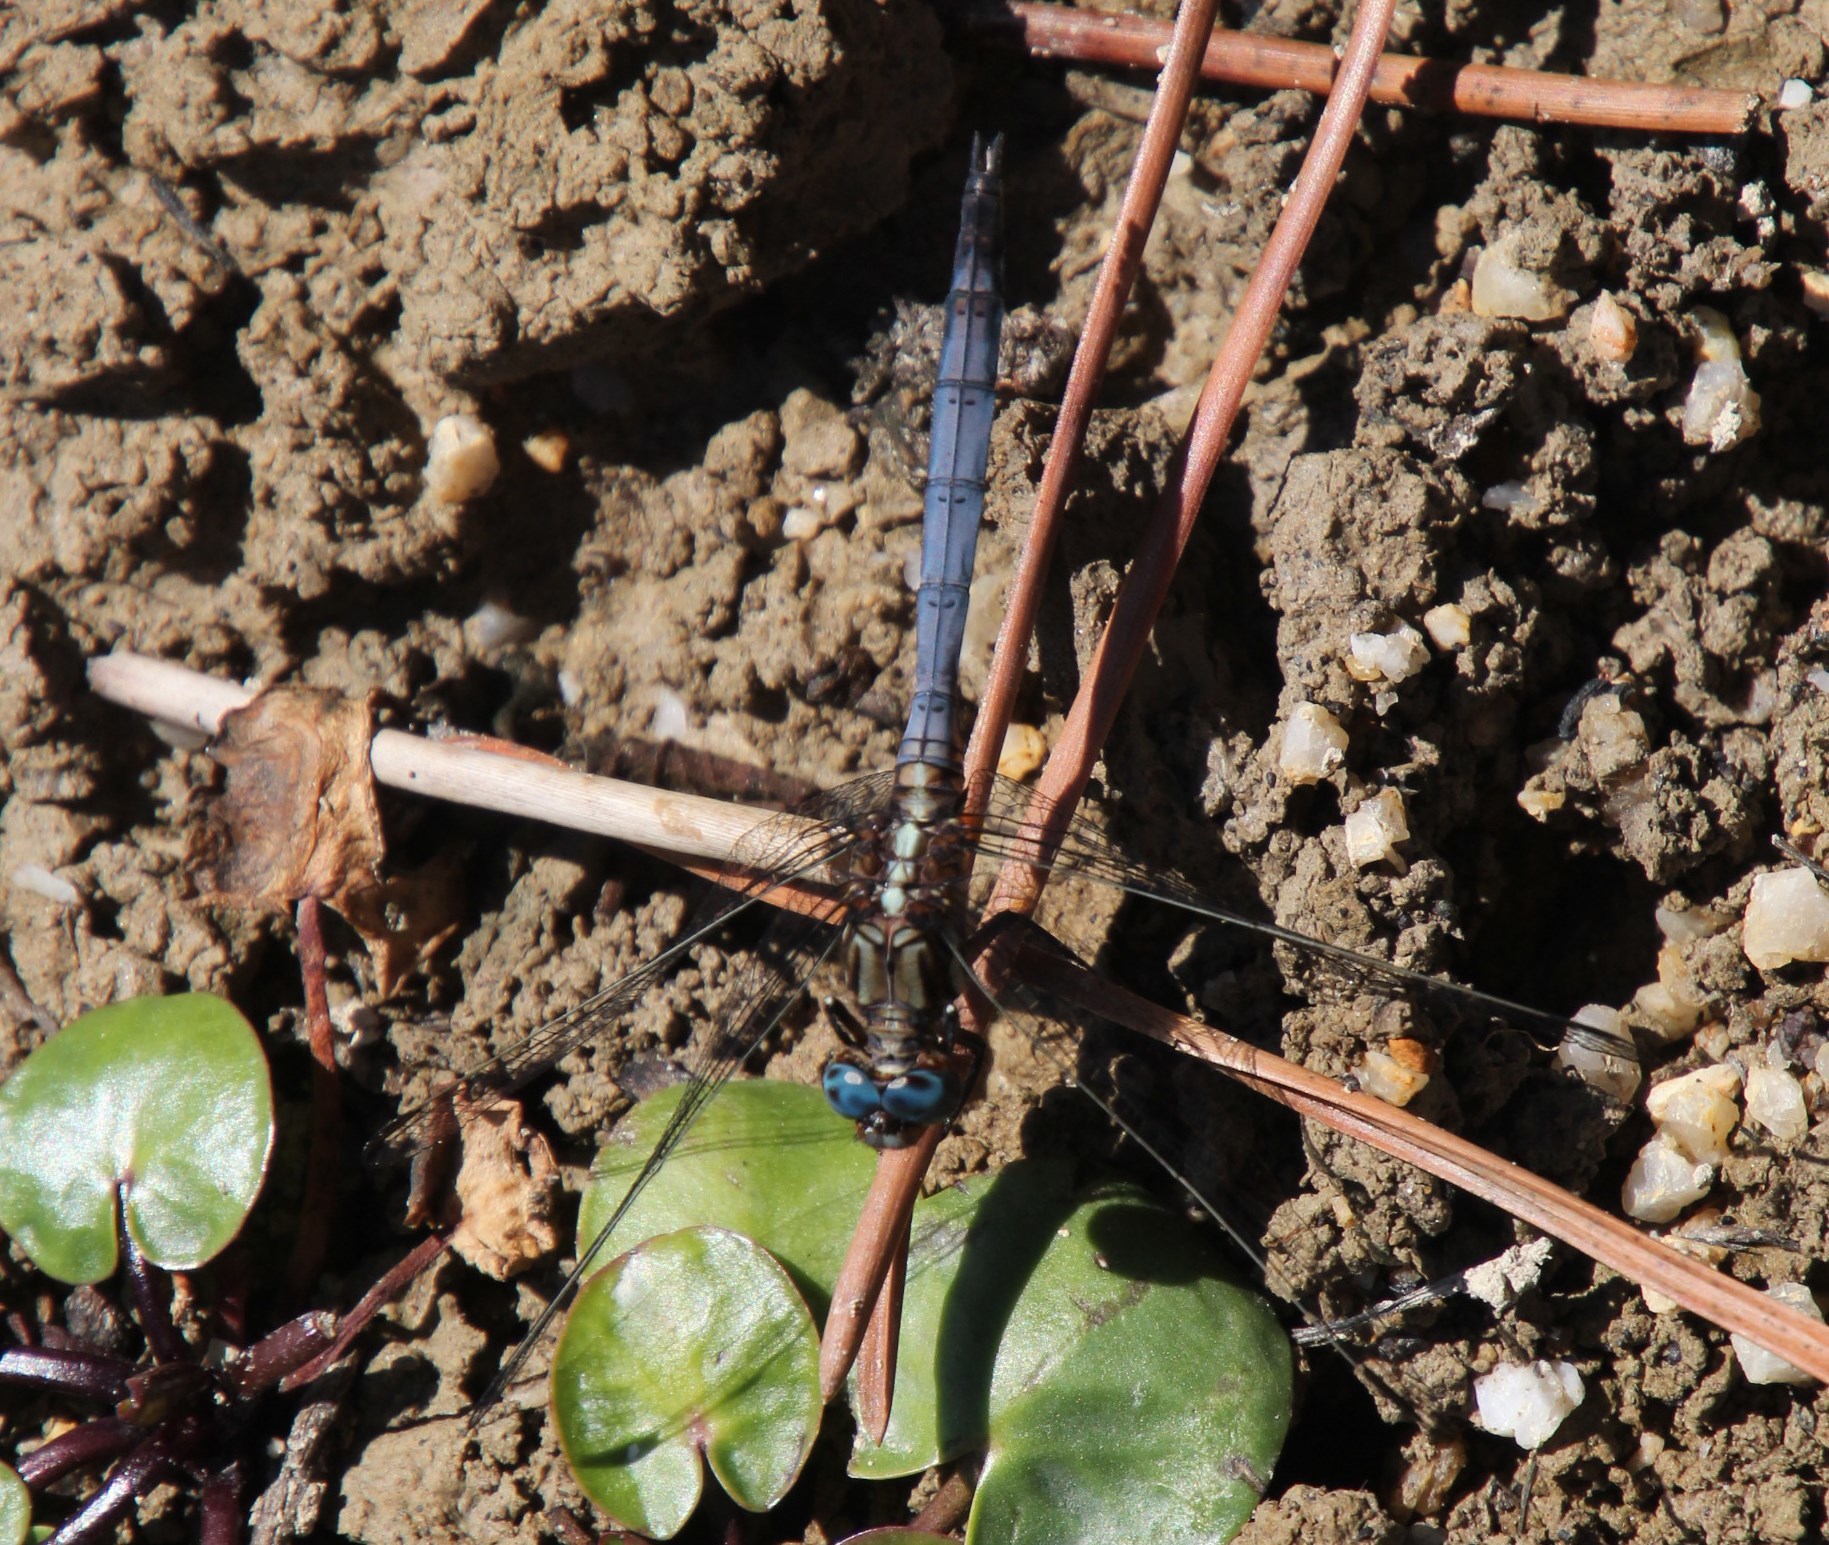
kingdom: Animalia
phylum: Arthropoda
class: Insecta
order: Odonata
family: Libellulidae
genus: Orthetrum
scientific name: Orthetrum julia
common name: Julia skimmer
